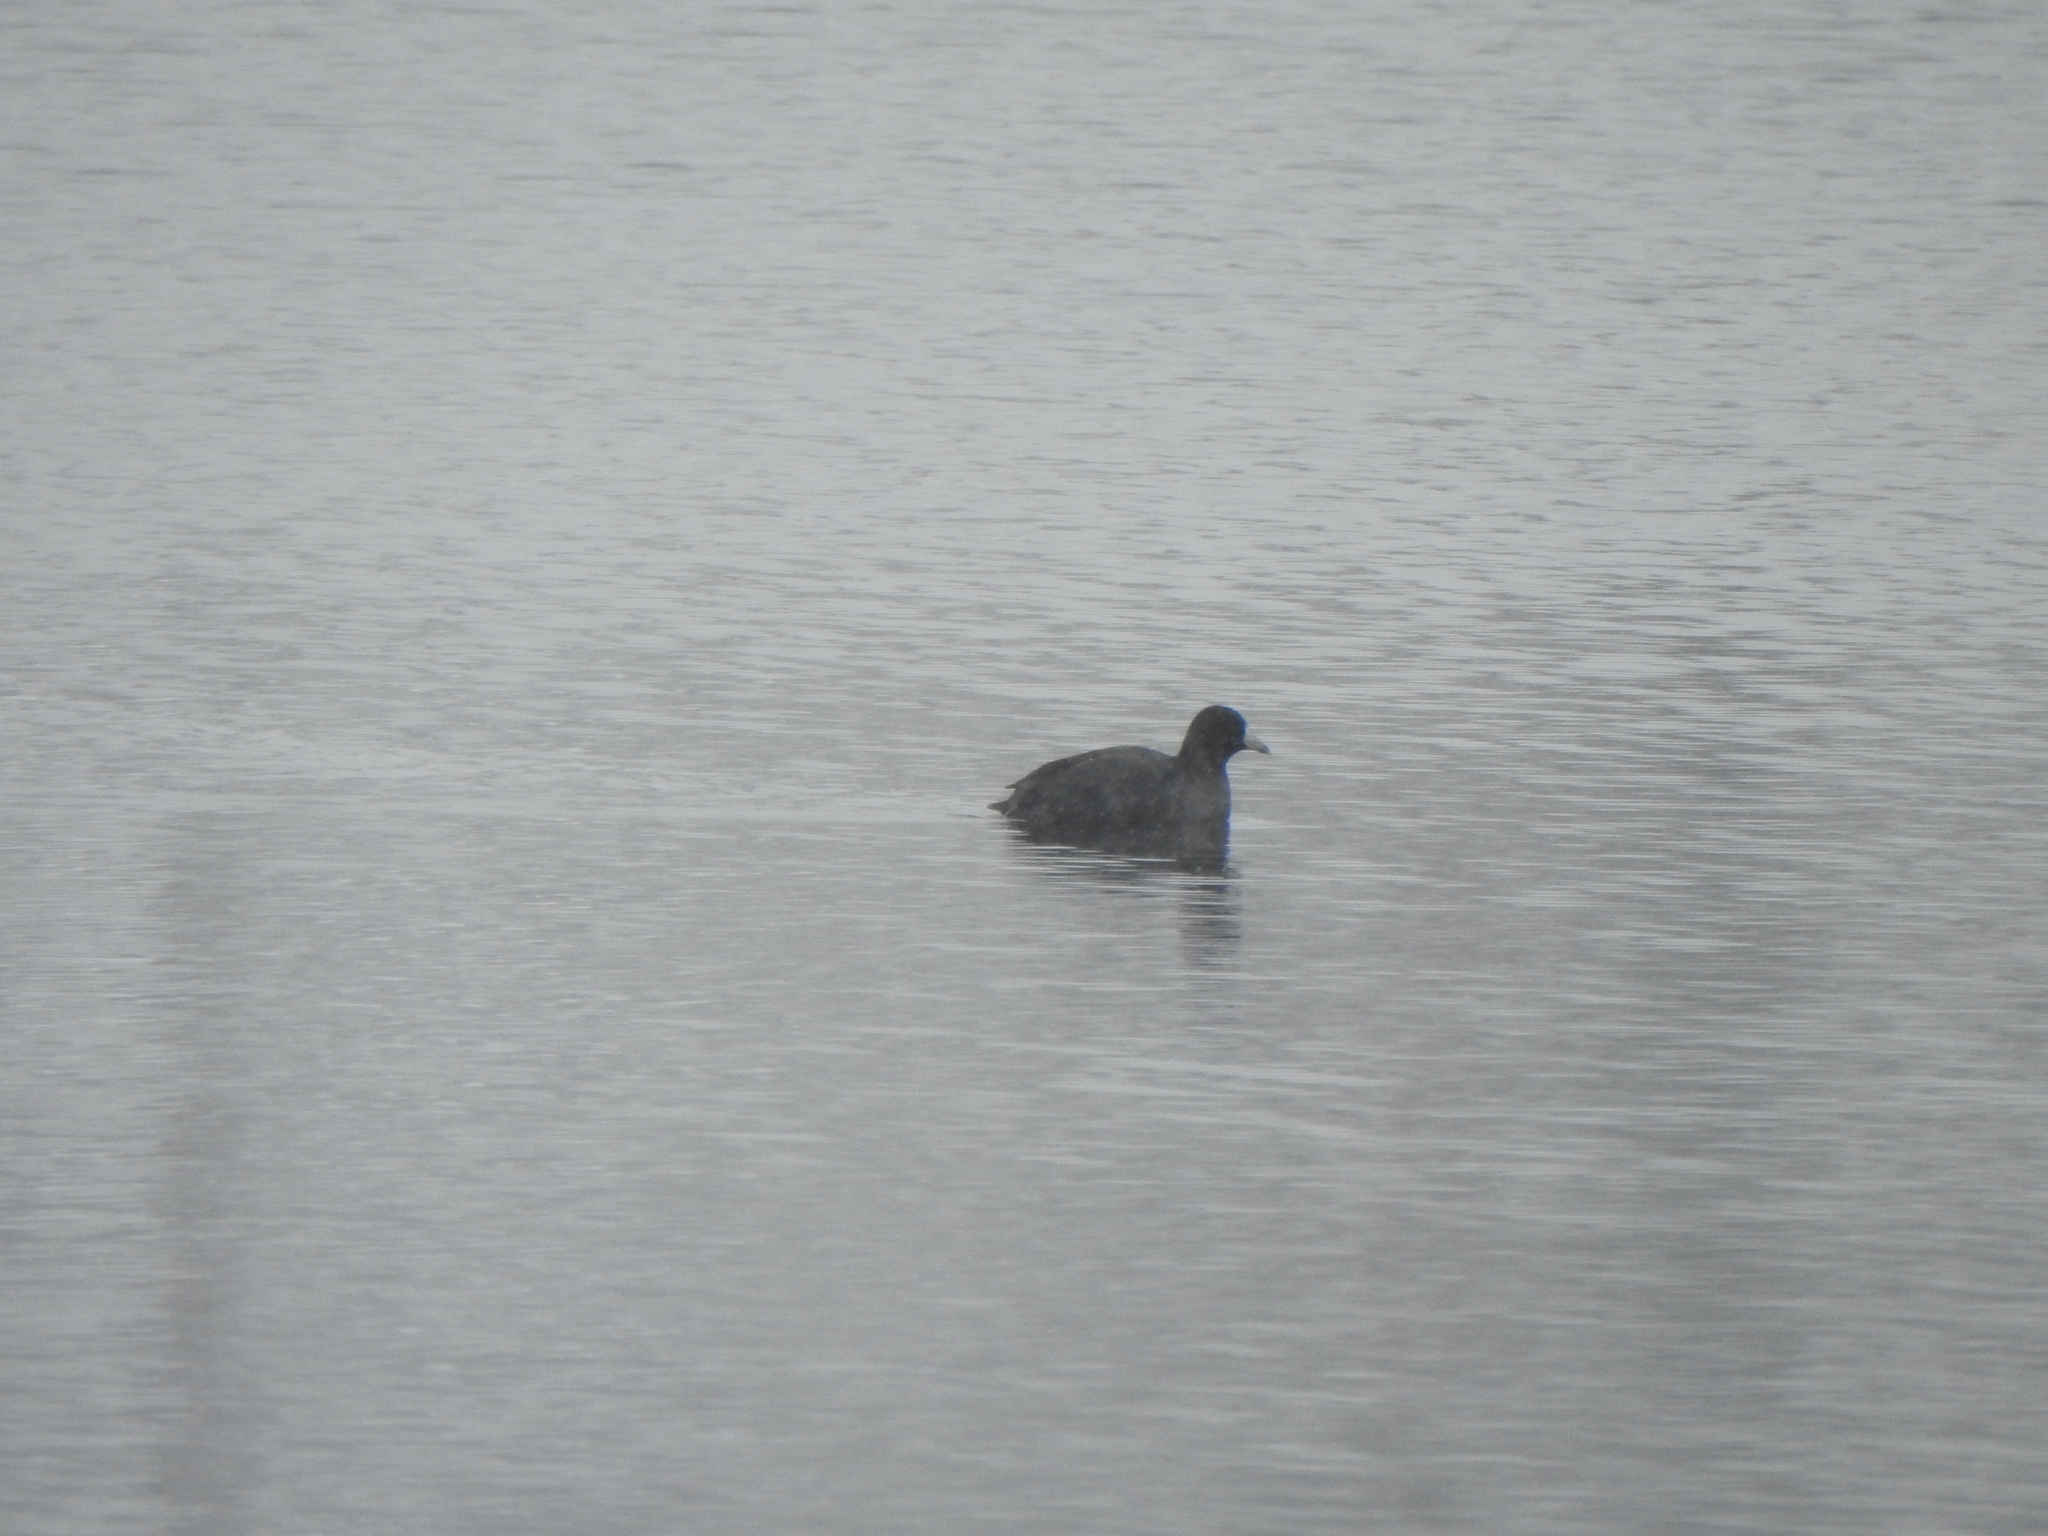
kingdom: Animalia
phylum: Chordata
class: Aves
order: Gruiformes
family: Rallidae
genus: Fulica
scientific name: Fulica americana
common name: American coot
